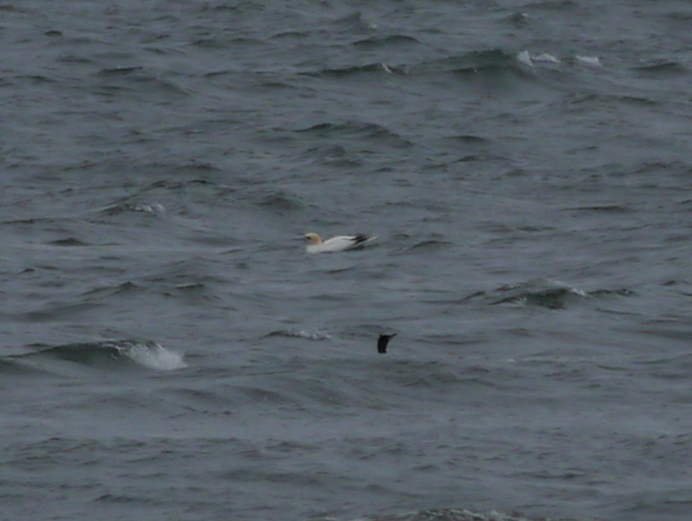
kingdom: Animalia
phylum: Chordata
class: Aves
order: Suliformes
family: Sulidae
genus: Morus
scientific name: Morus bassanus
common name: Northern gannet
